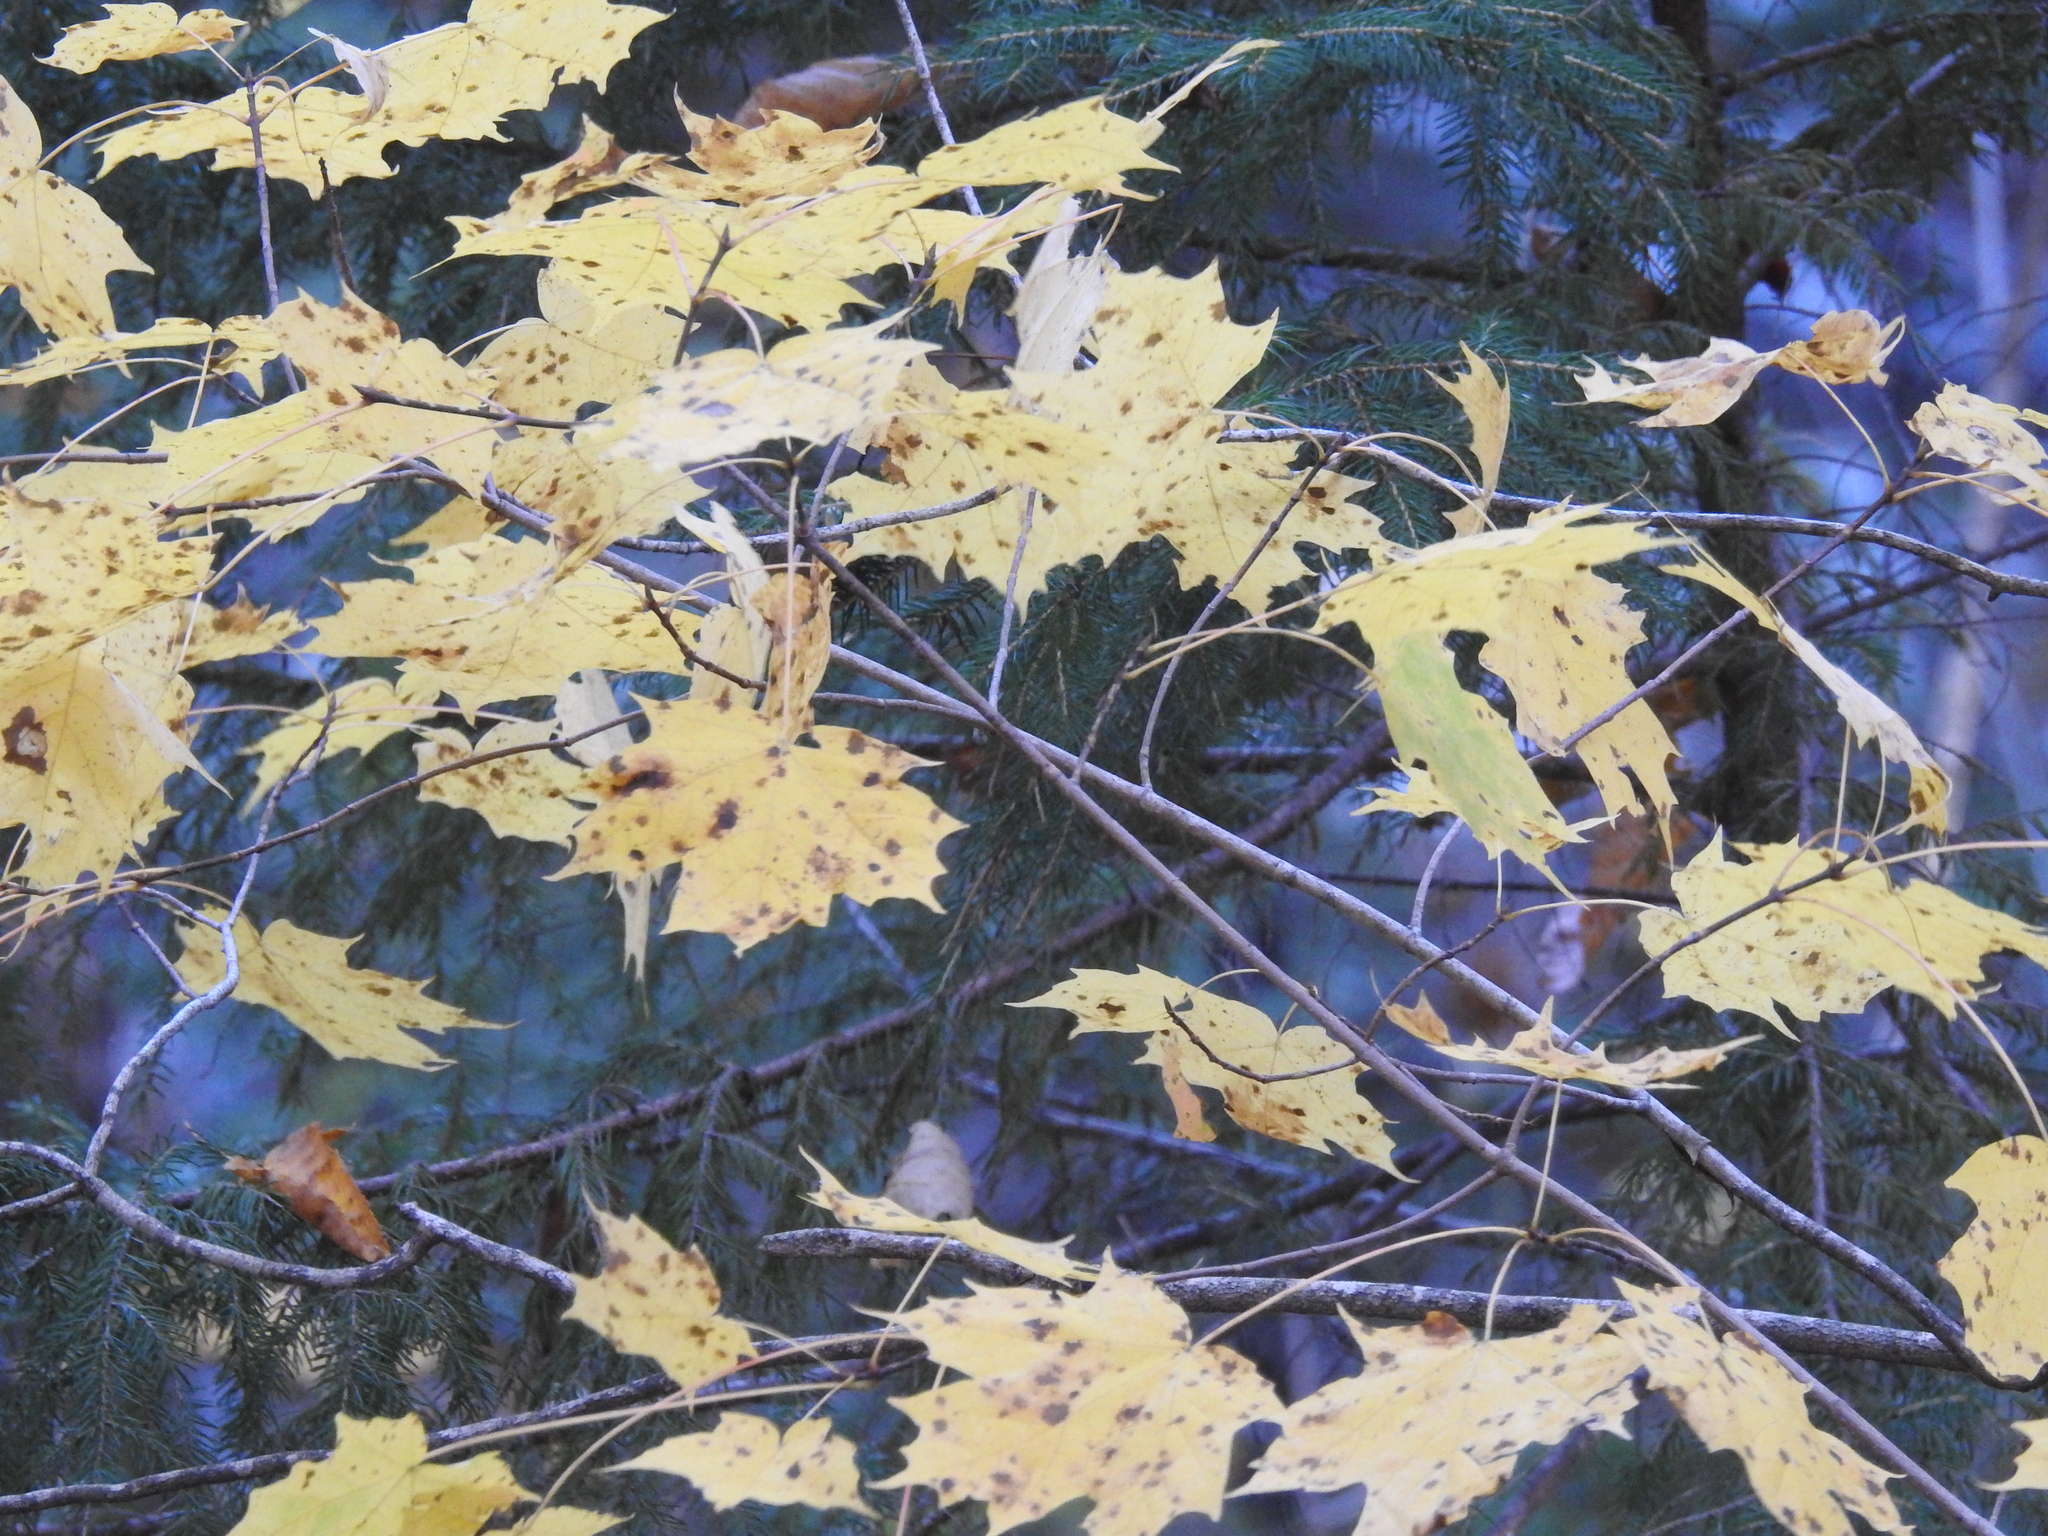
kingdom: Plantae
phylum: Tracheophyta
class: Magnoliopsida
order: Sapindales
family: Sapindaceae
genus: Acer
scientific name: Acer saccharum
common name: Sugar maple
